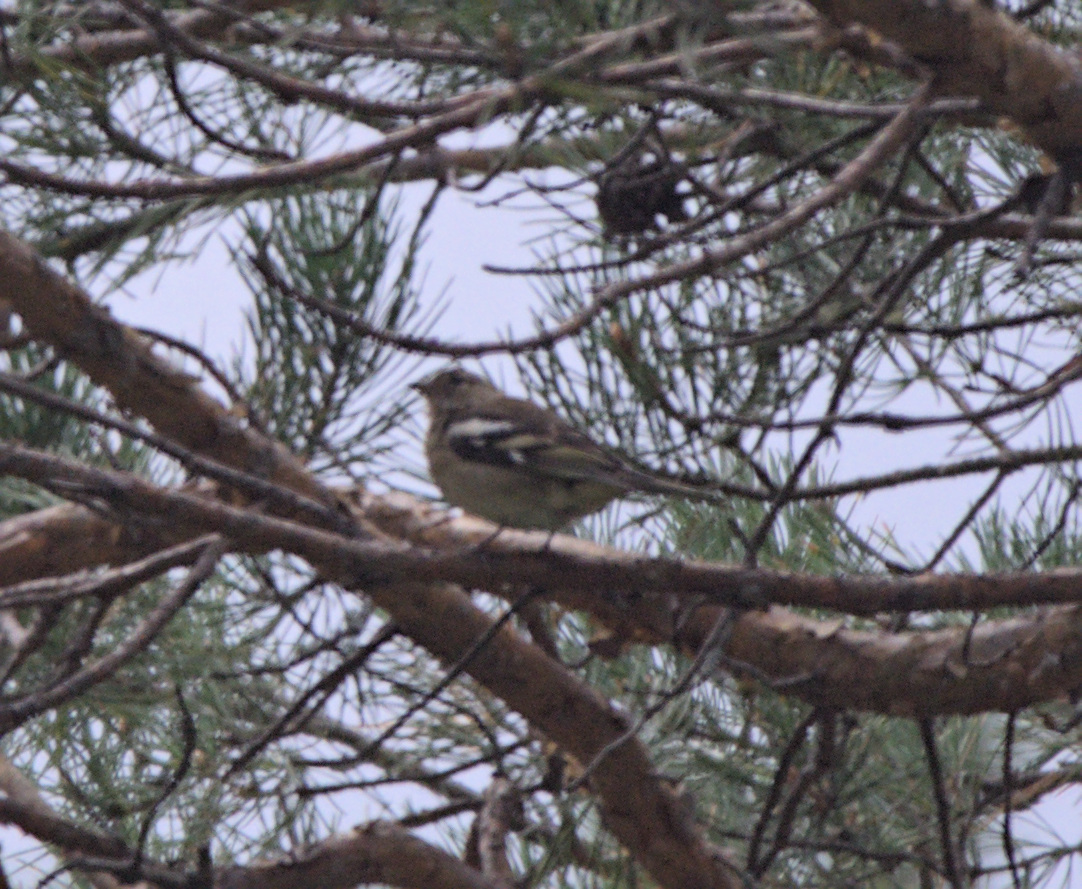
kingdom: Animalia
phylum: Chordata
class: Aves
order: Passeriformes
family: Fringillidae
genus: Fringilla
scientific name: Fringilla coelebs
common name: Common chaffinch
